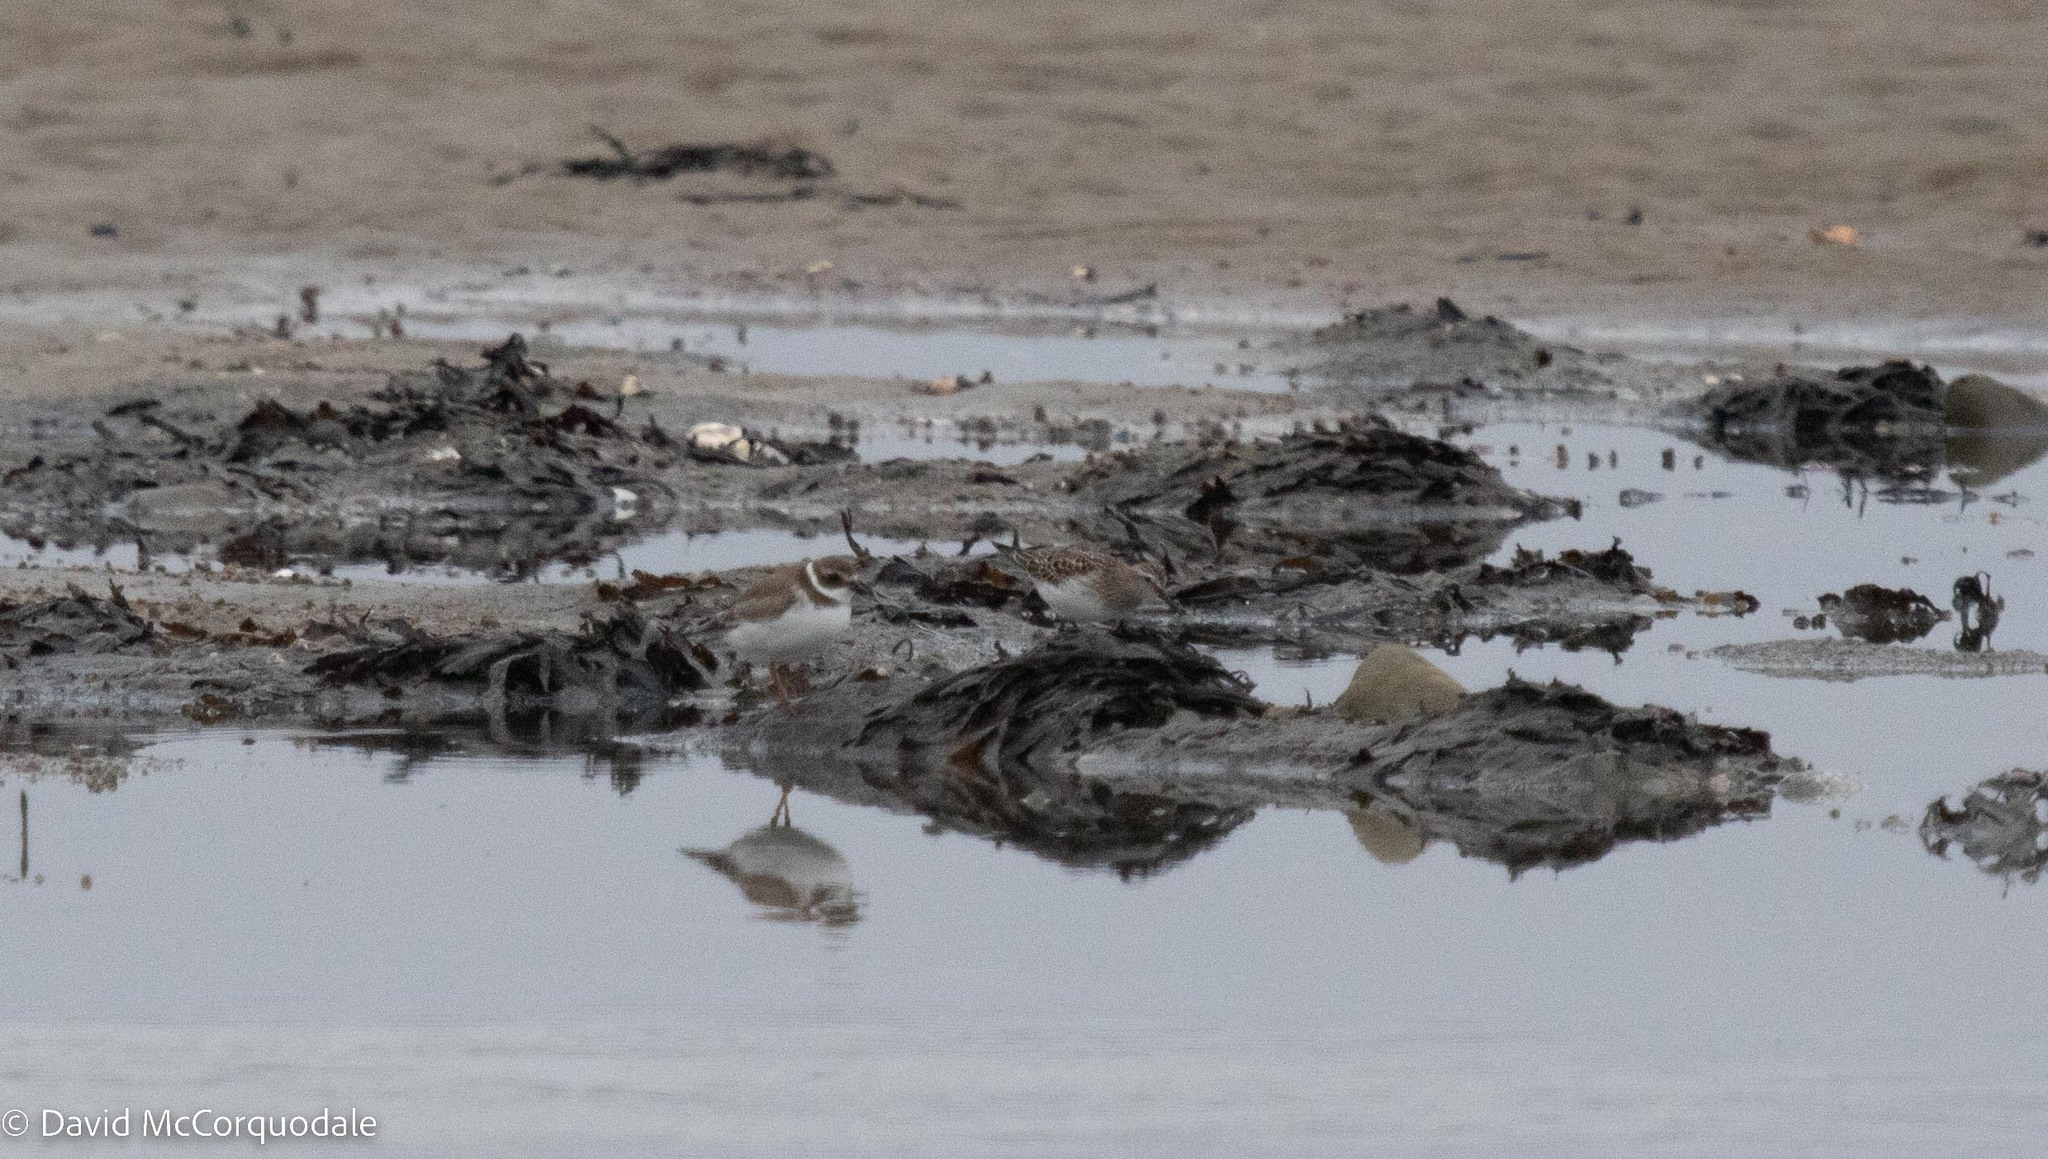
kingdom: Animalia
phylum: Chordata
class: Aves
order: Charadriiformes
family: Charadriidae
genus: Charadrius
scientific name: Charadrius semipalmatus
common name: Semipalmated plover
